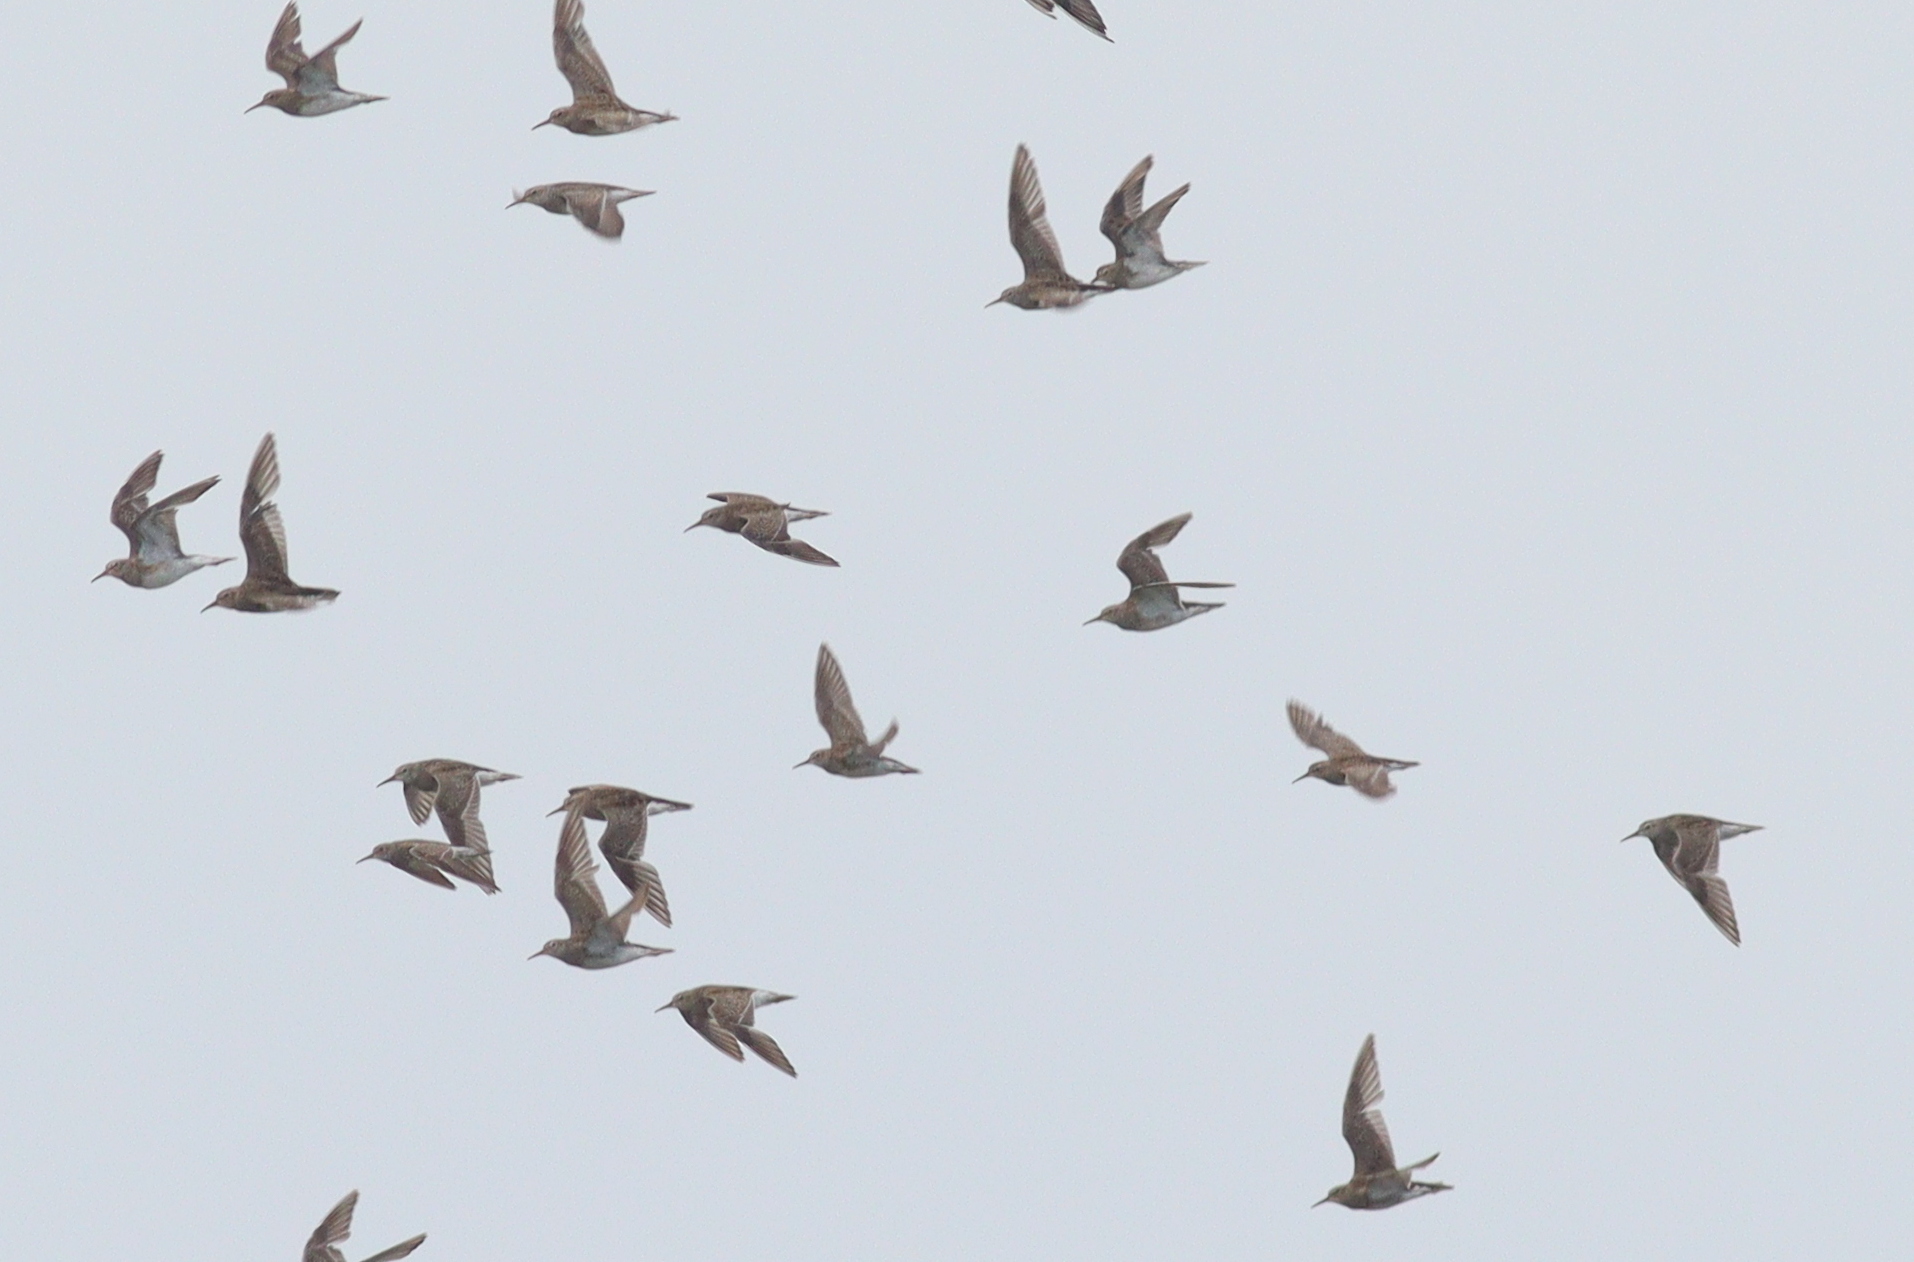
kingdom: Animalia
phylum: Chordata
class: Aves
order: Charadriiformes
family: Scolopacidae
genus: Calidris
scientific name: Calidris melanotos
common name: Pectoral sandpiper
